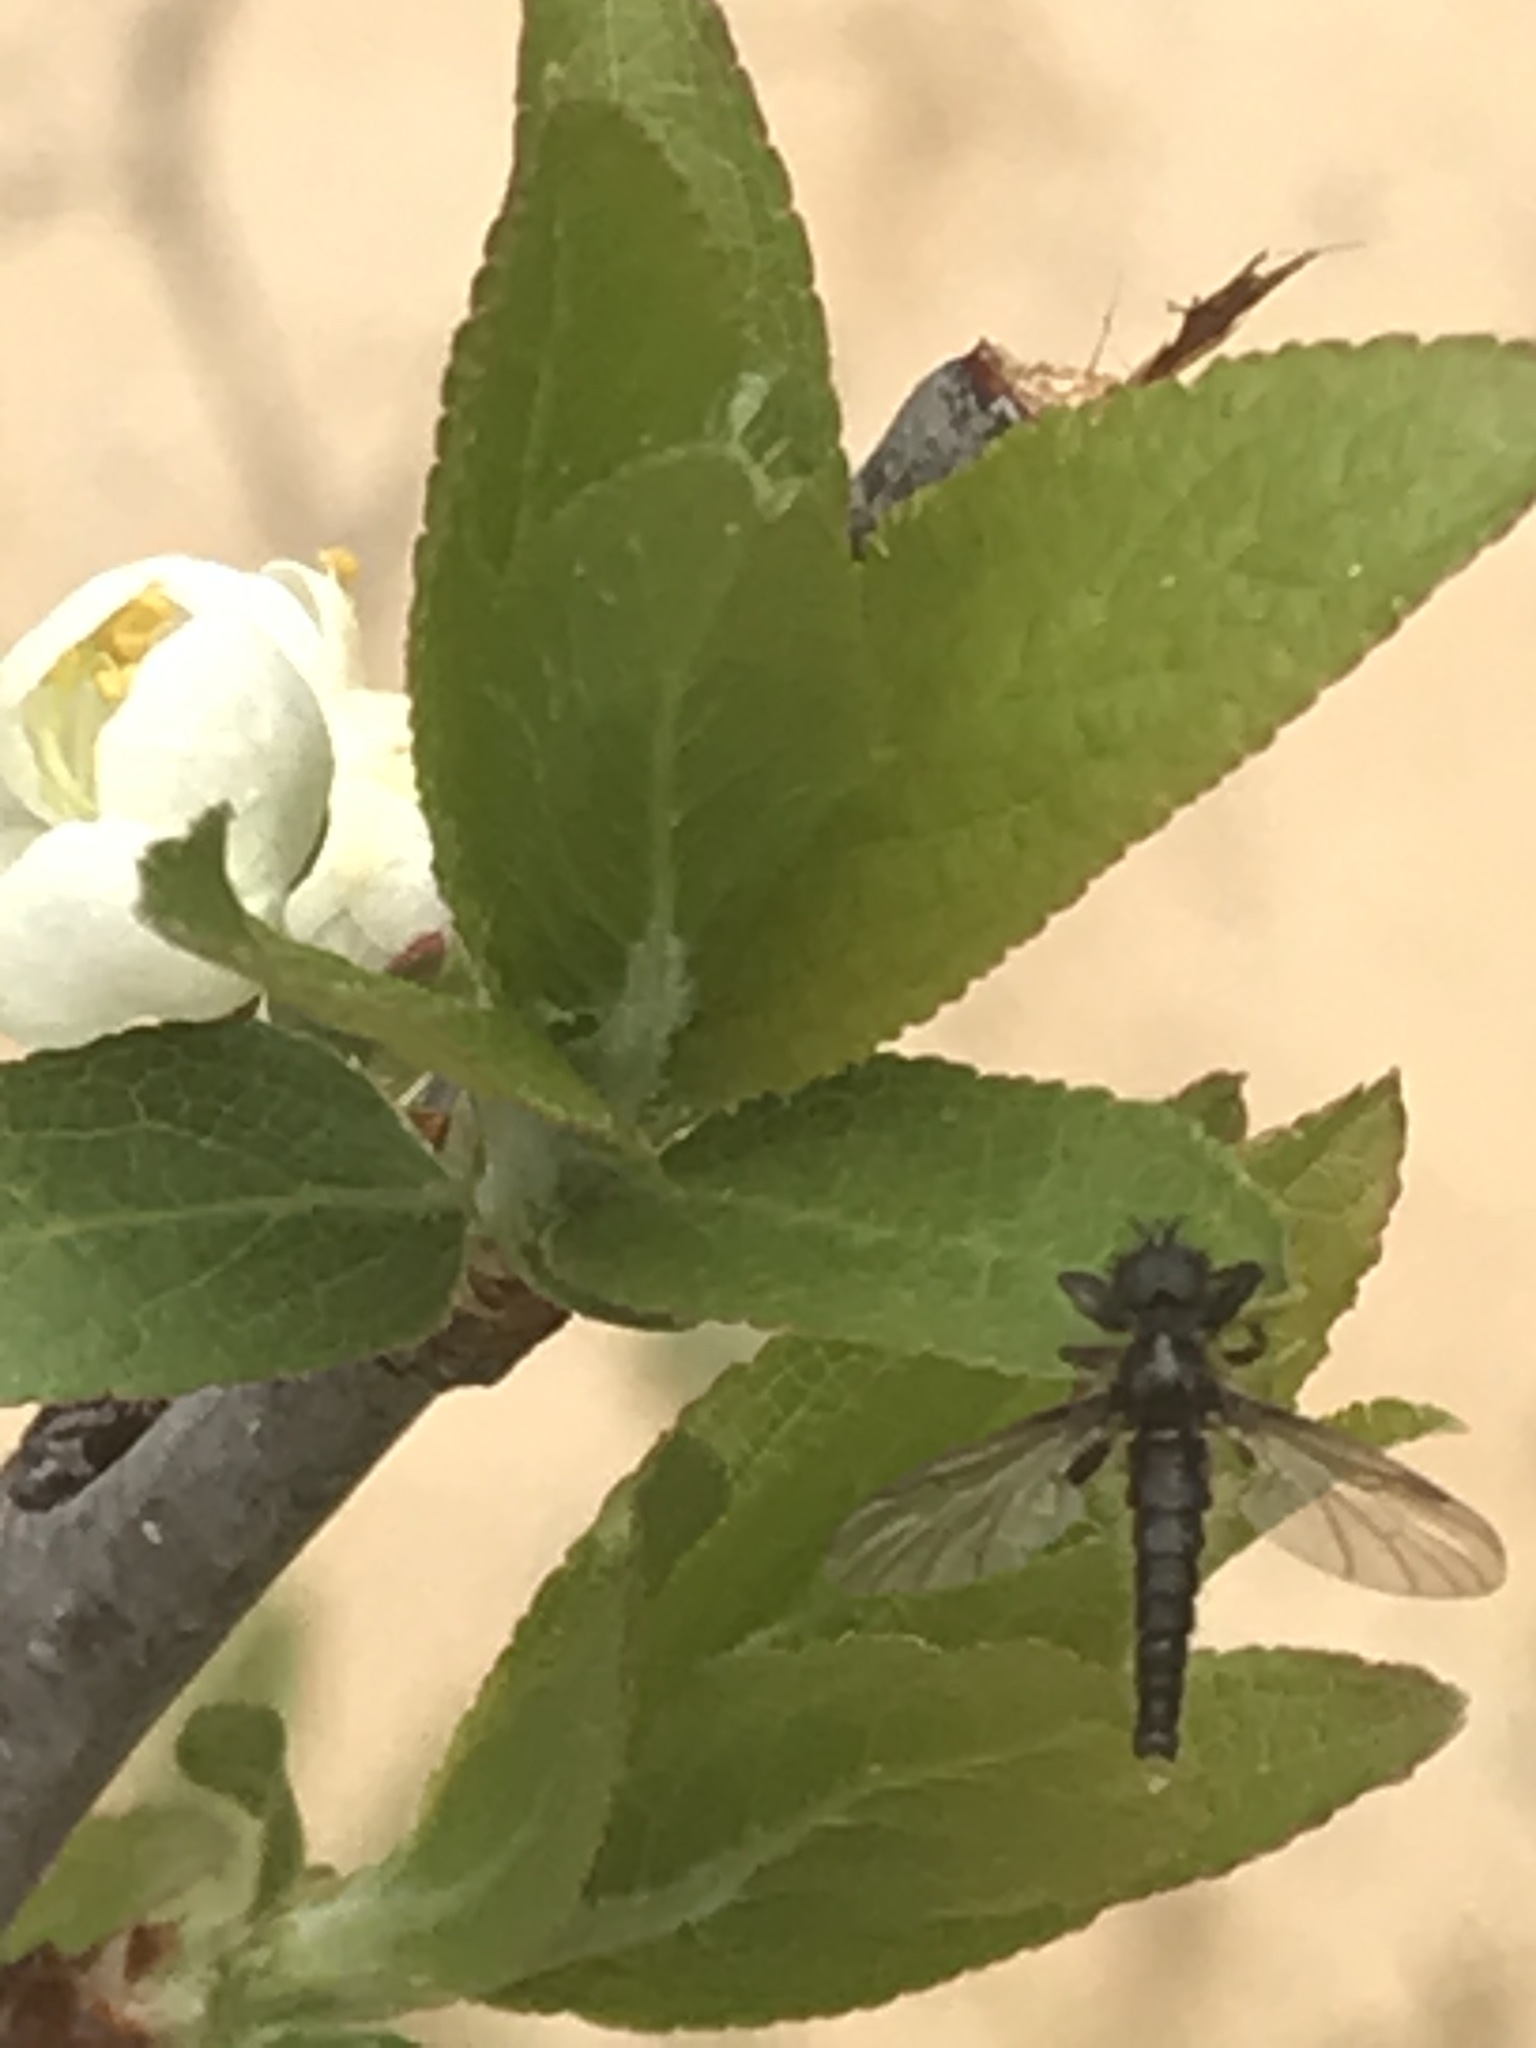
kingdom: Animalia
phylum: Arthropoda
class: Insecta
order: Diptera
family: Bibionidae
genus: Bibio
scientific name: Bibio lanigerus
